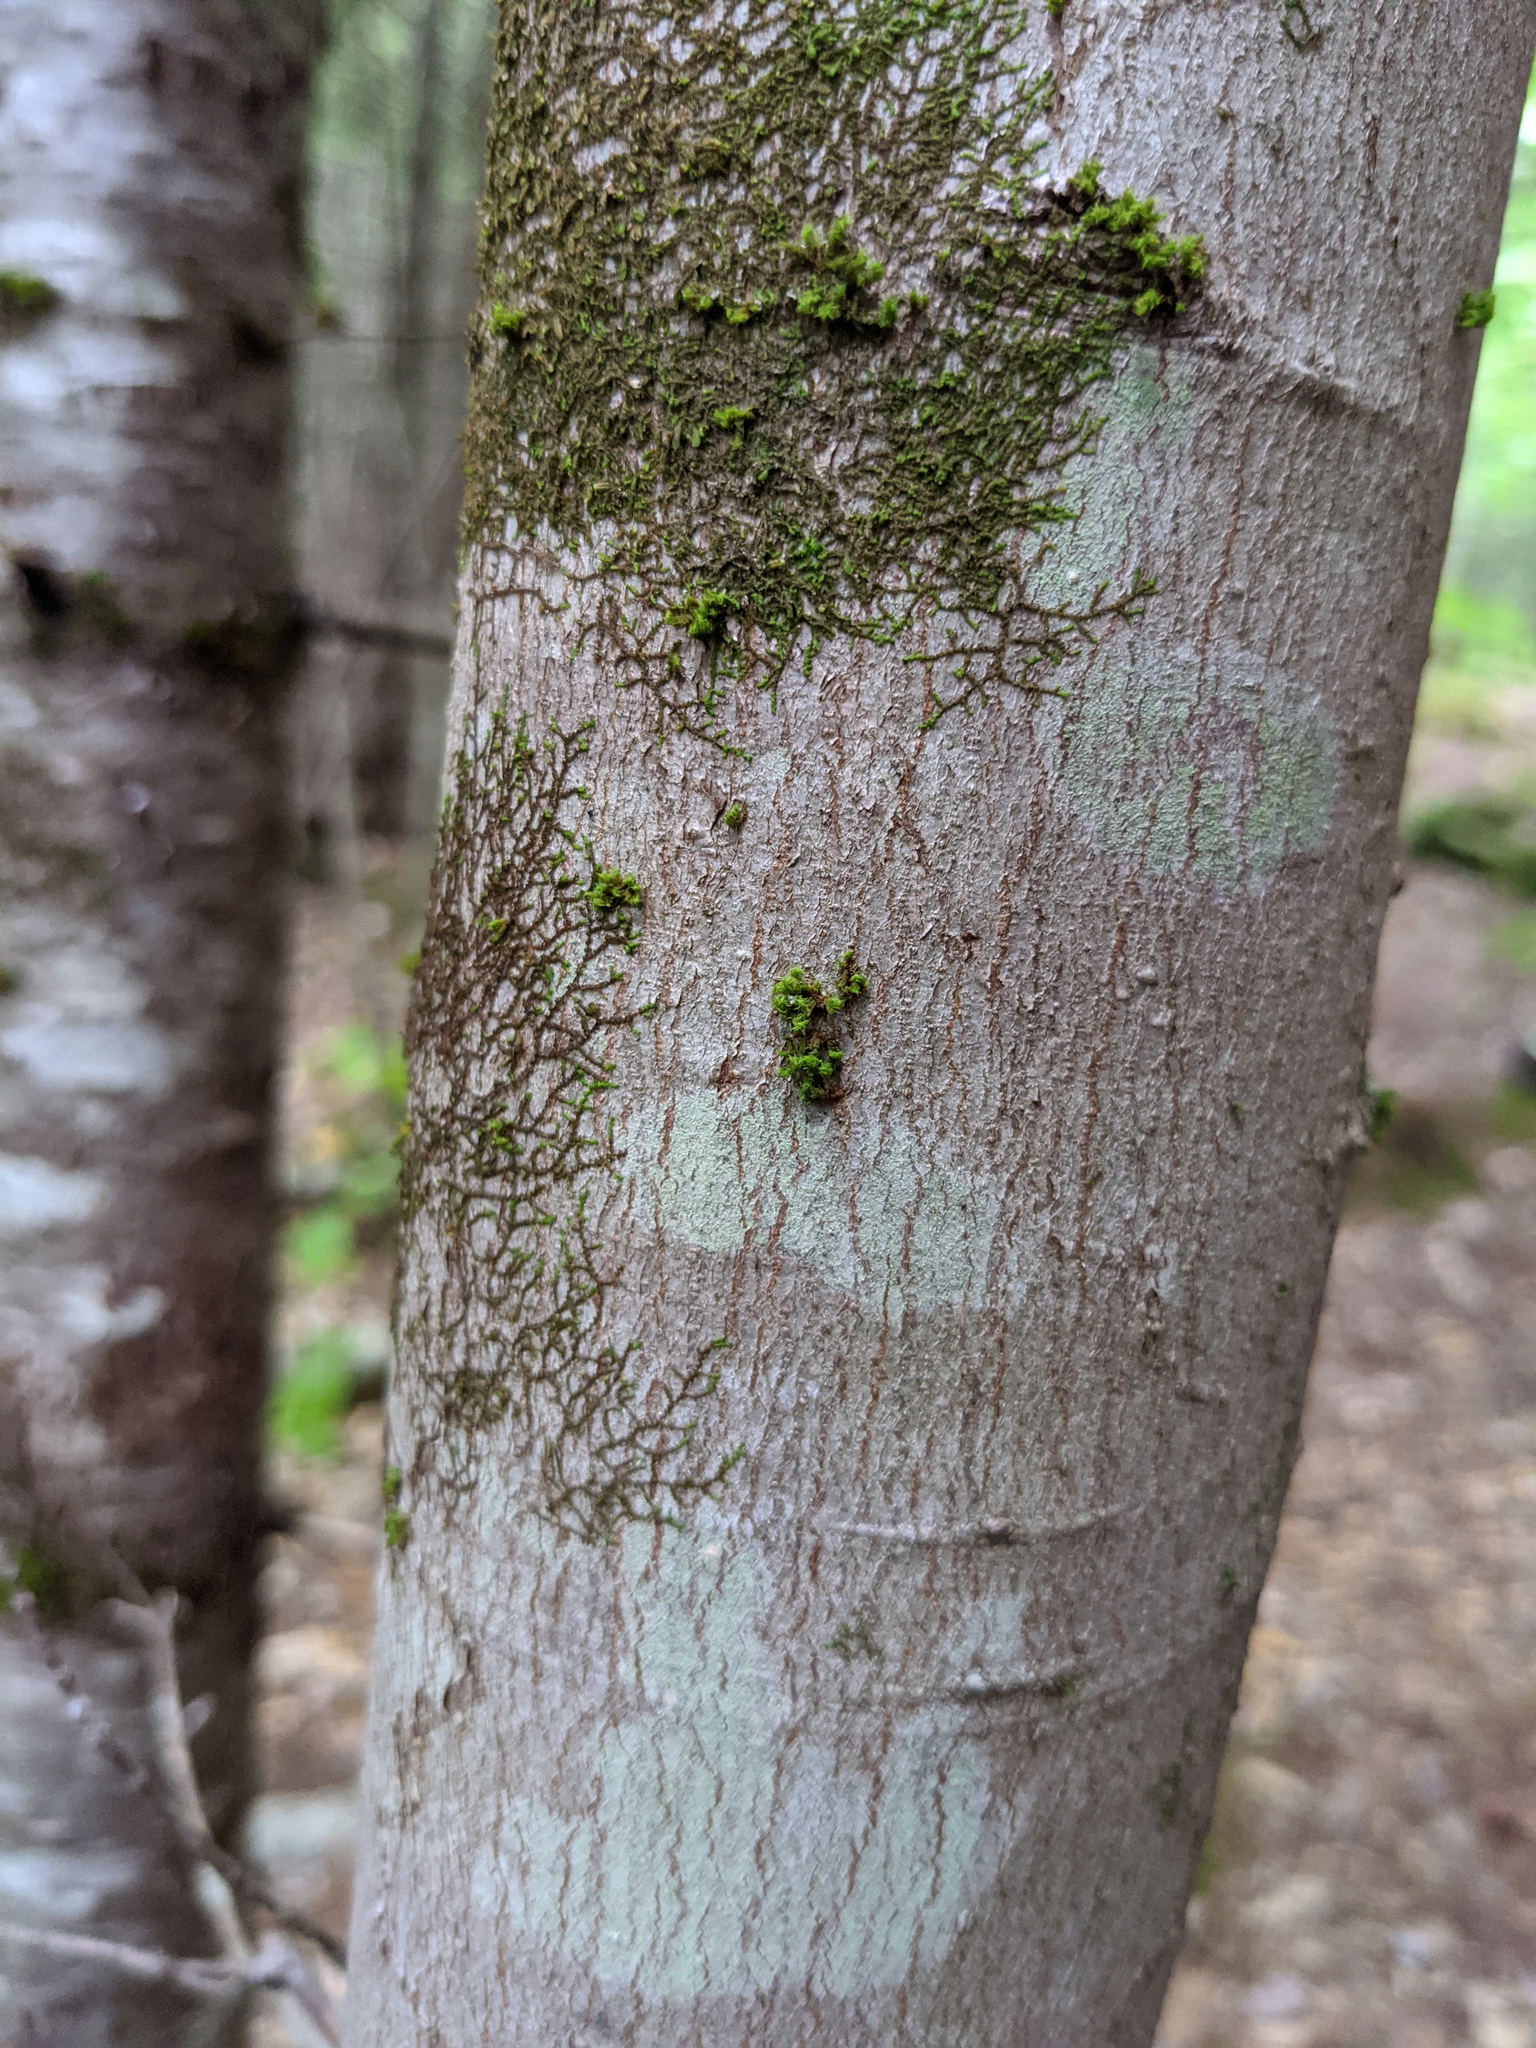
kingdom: Plantae
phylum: Bryophyta
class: Bryopsida
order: Orthotrichales
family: Orthotrichaceae
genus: Ulota
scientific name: Ulota crispa
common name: Crisped pincushion moss
